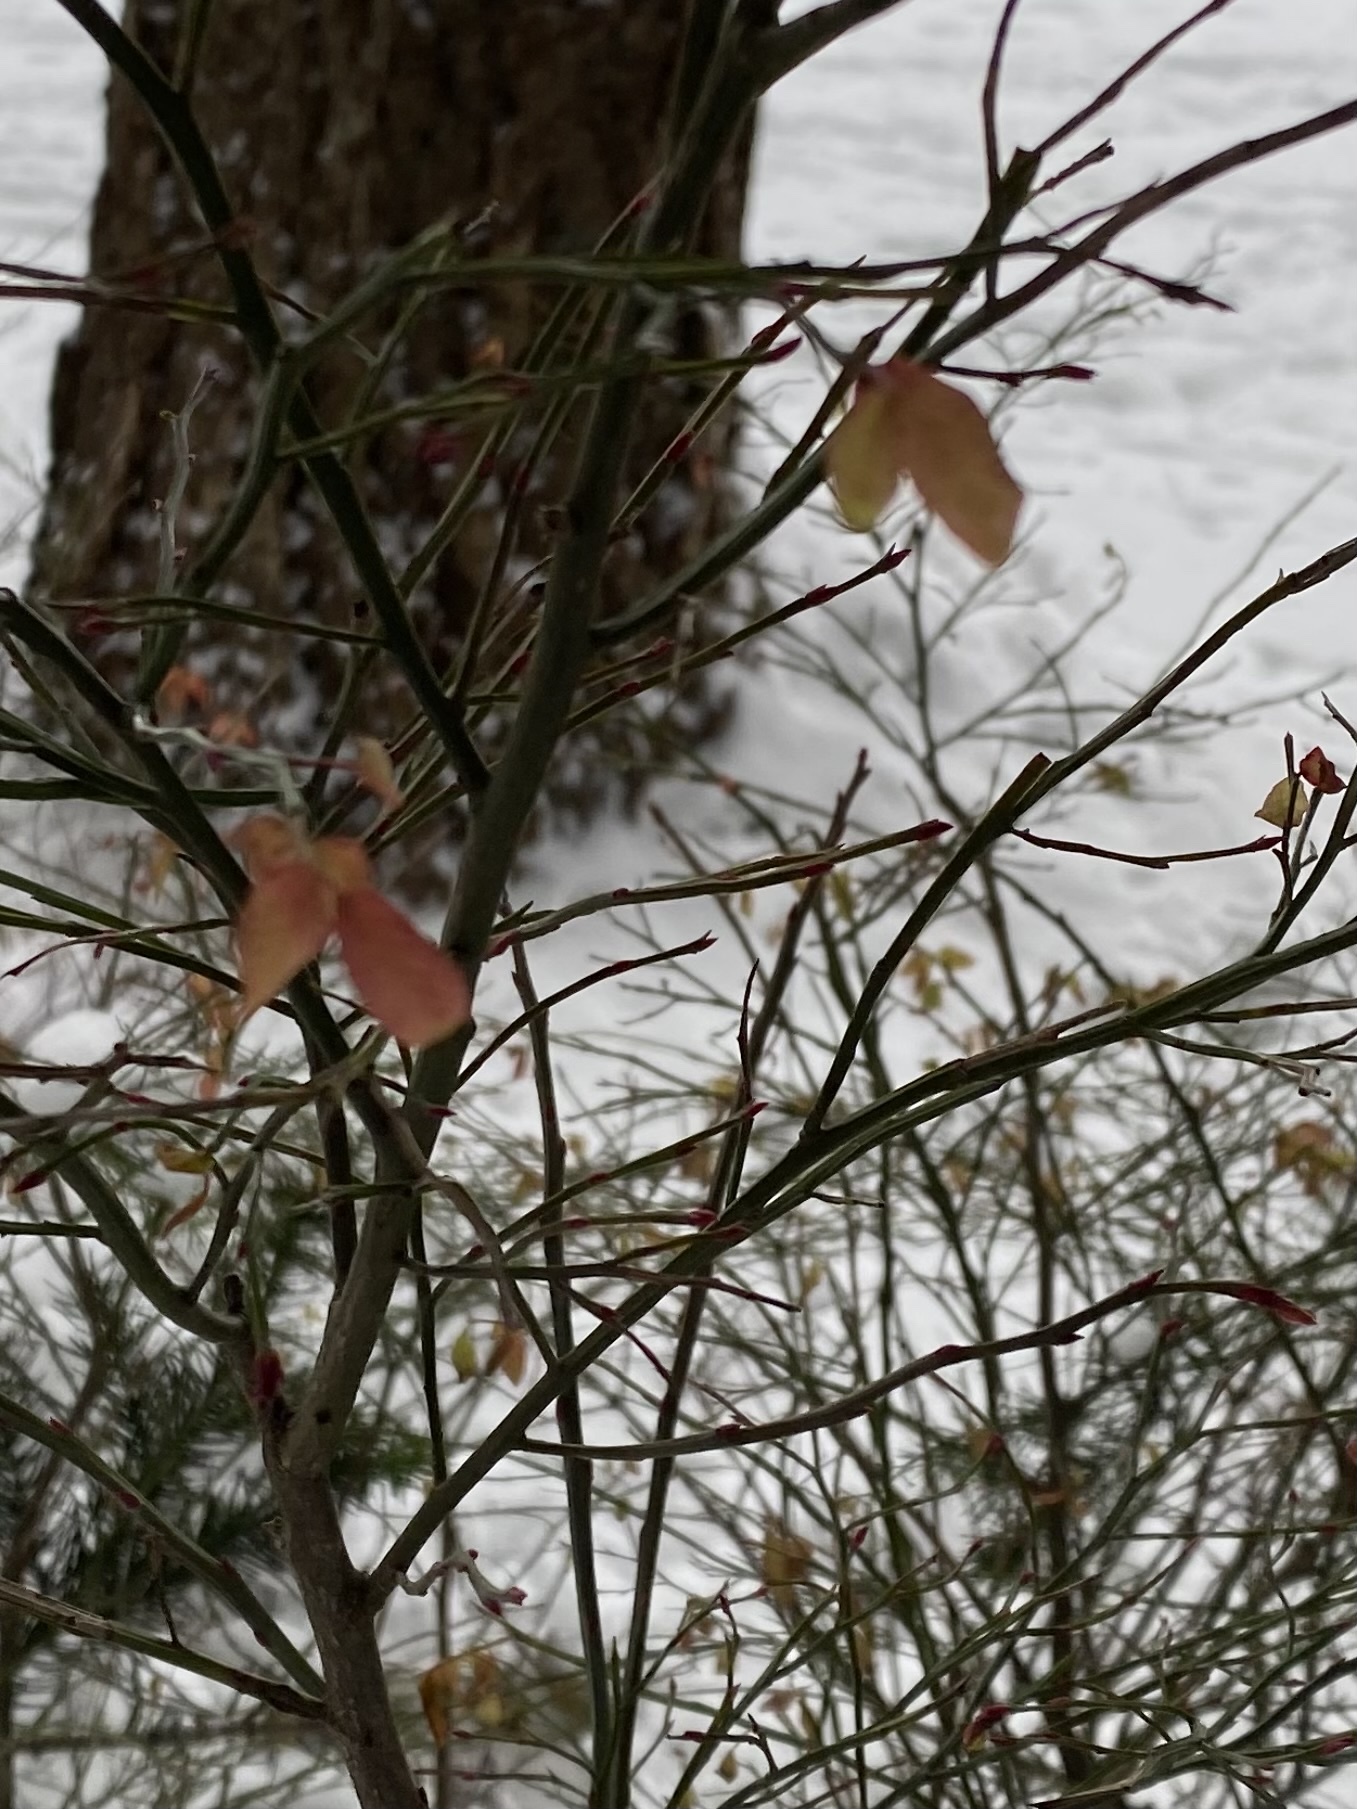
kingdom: Plantae
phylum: Tracheophyta
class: Magnoliopsida
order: Ericales
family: Ericaceae
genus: Vaccinium
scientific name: Vaccinium parvifolium
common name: Red-huckleberry
